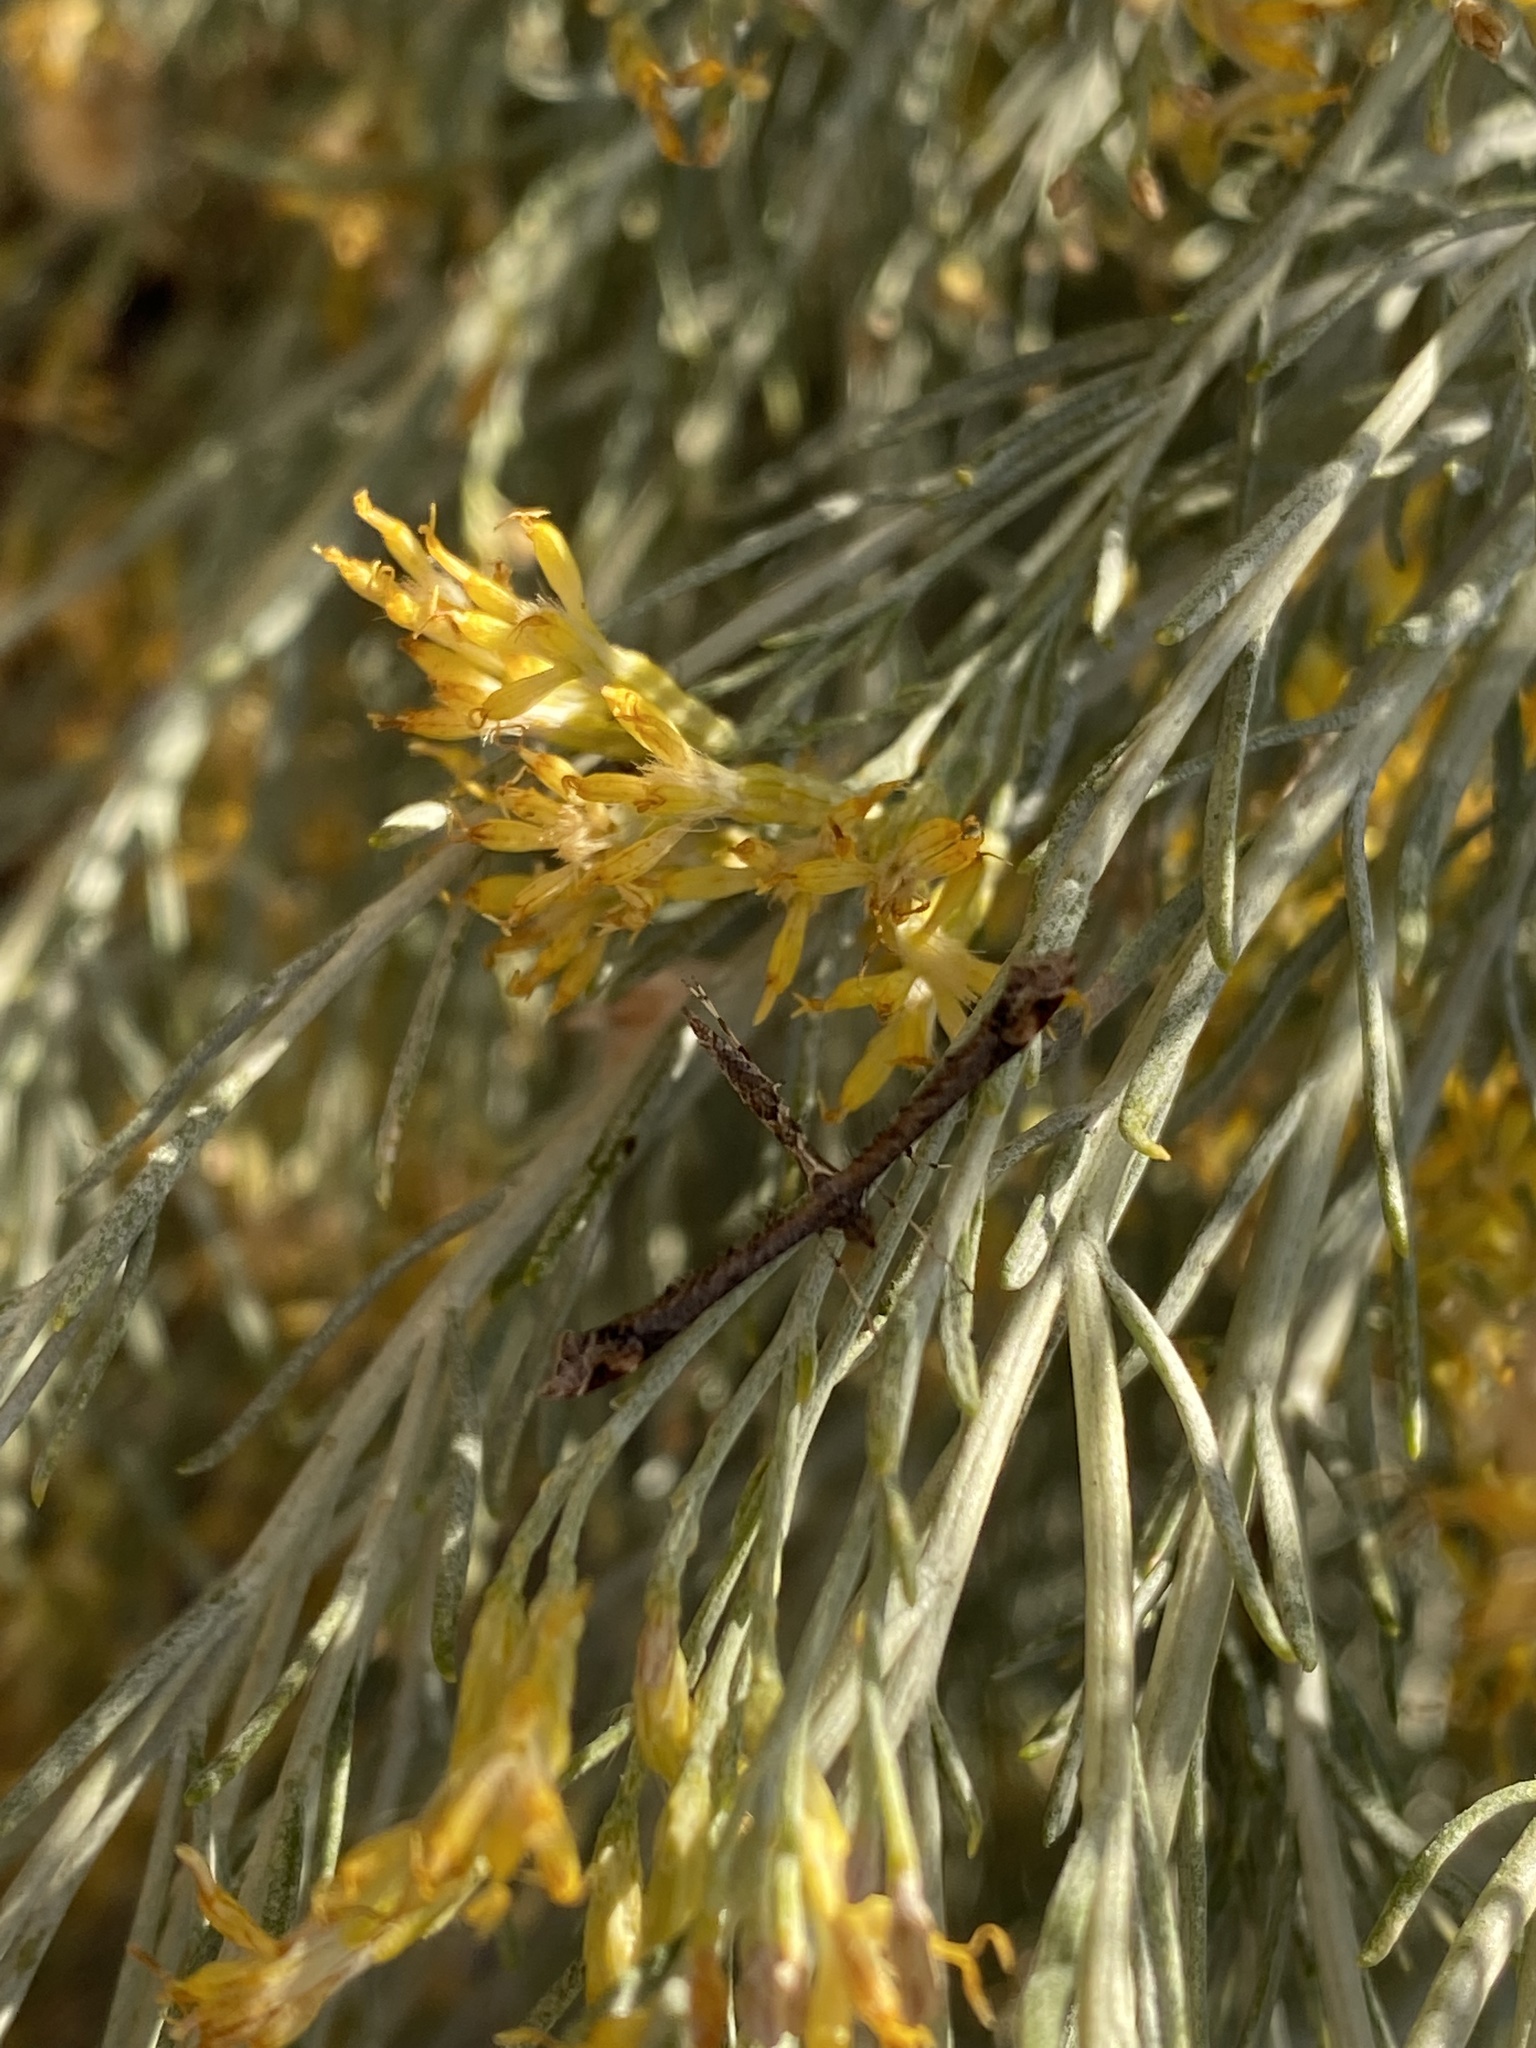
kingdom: Animalia
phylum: Arthropoda
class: Insecta
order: Lepidoptera
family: Pterophoridae
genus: Anstenoptilia
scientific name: Anstenoptilia marmarodactyla
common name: Moth
